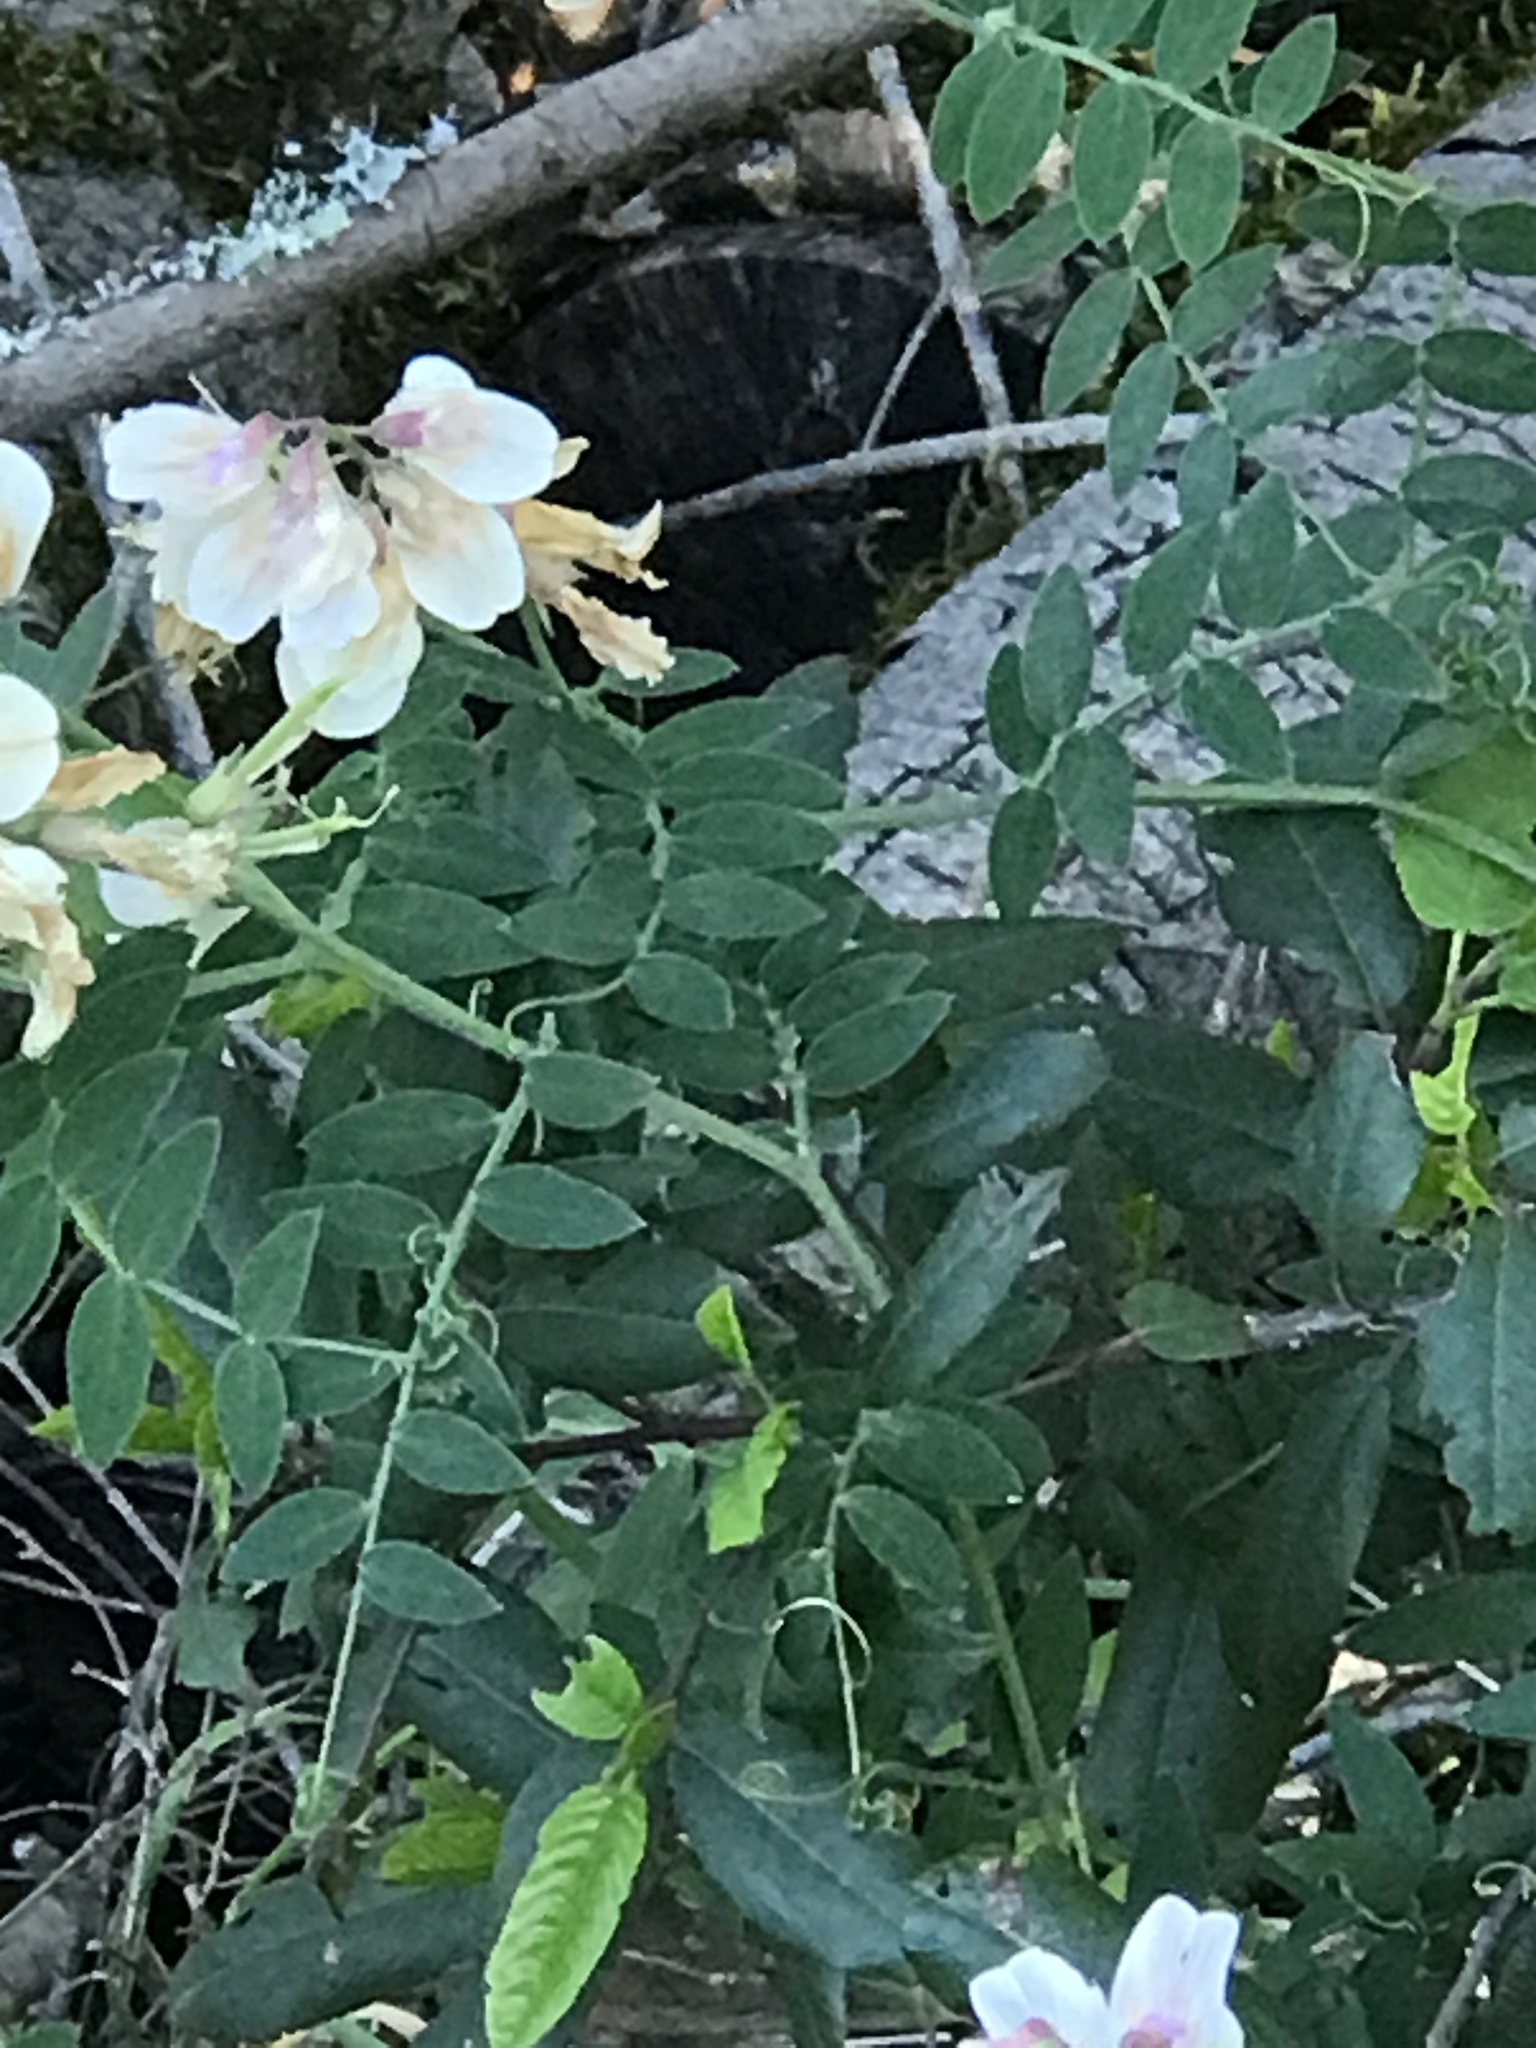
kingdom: Plantae
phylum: Tracheophyta
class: Magnoliopsida
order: Fabales
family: Fabaceae
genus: Lathyrus
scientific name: Lathyrus vestitus
